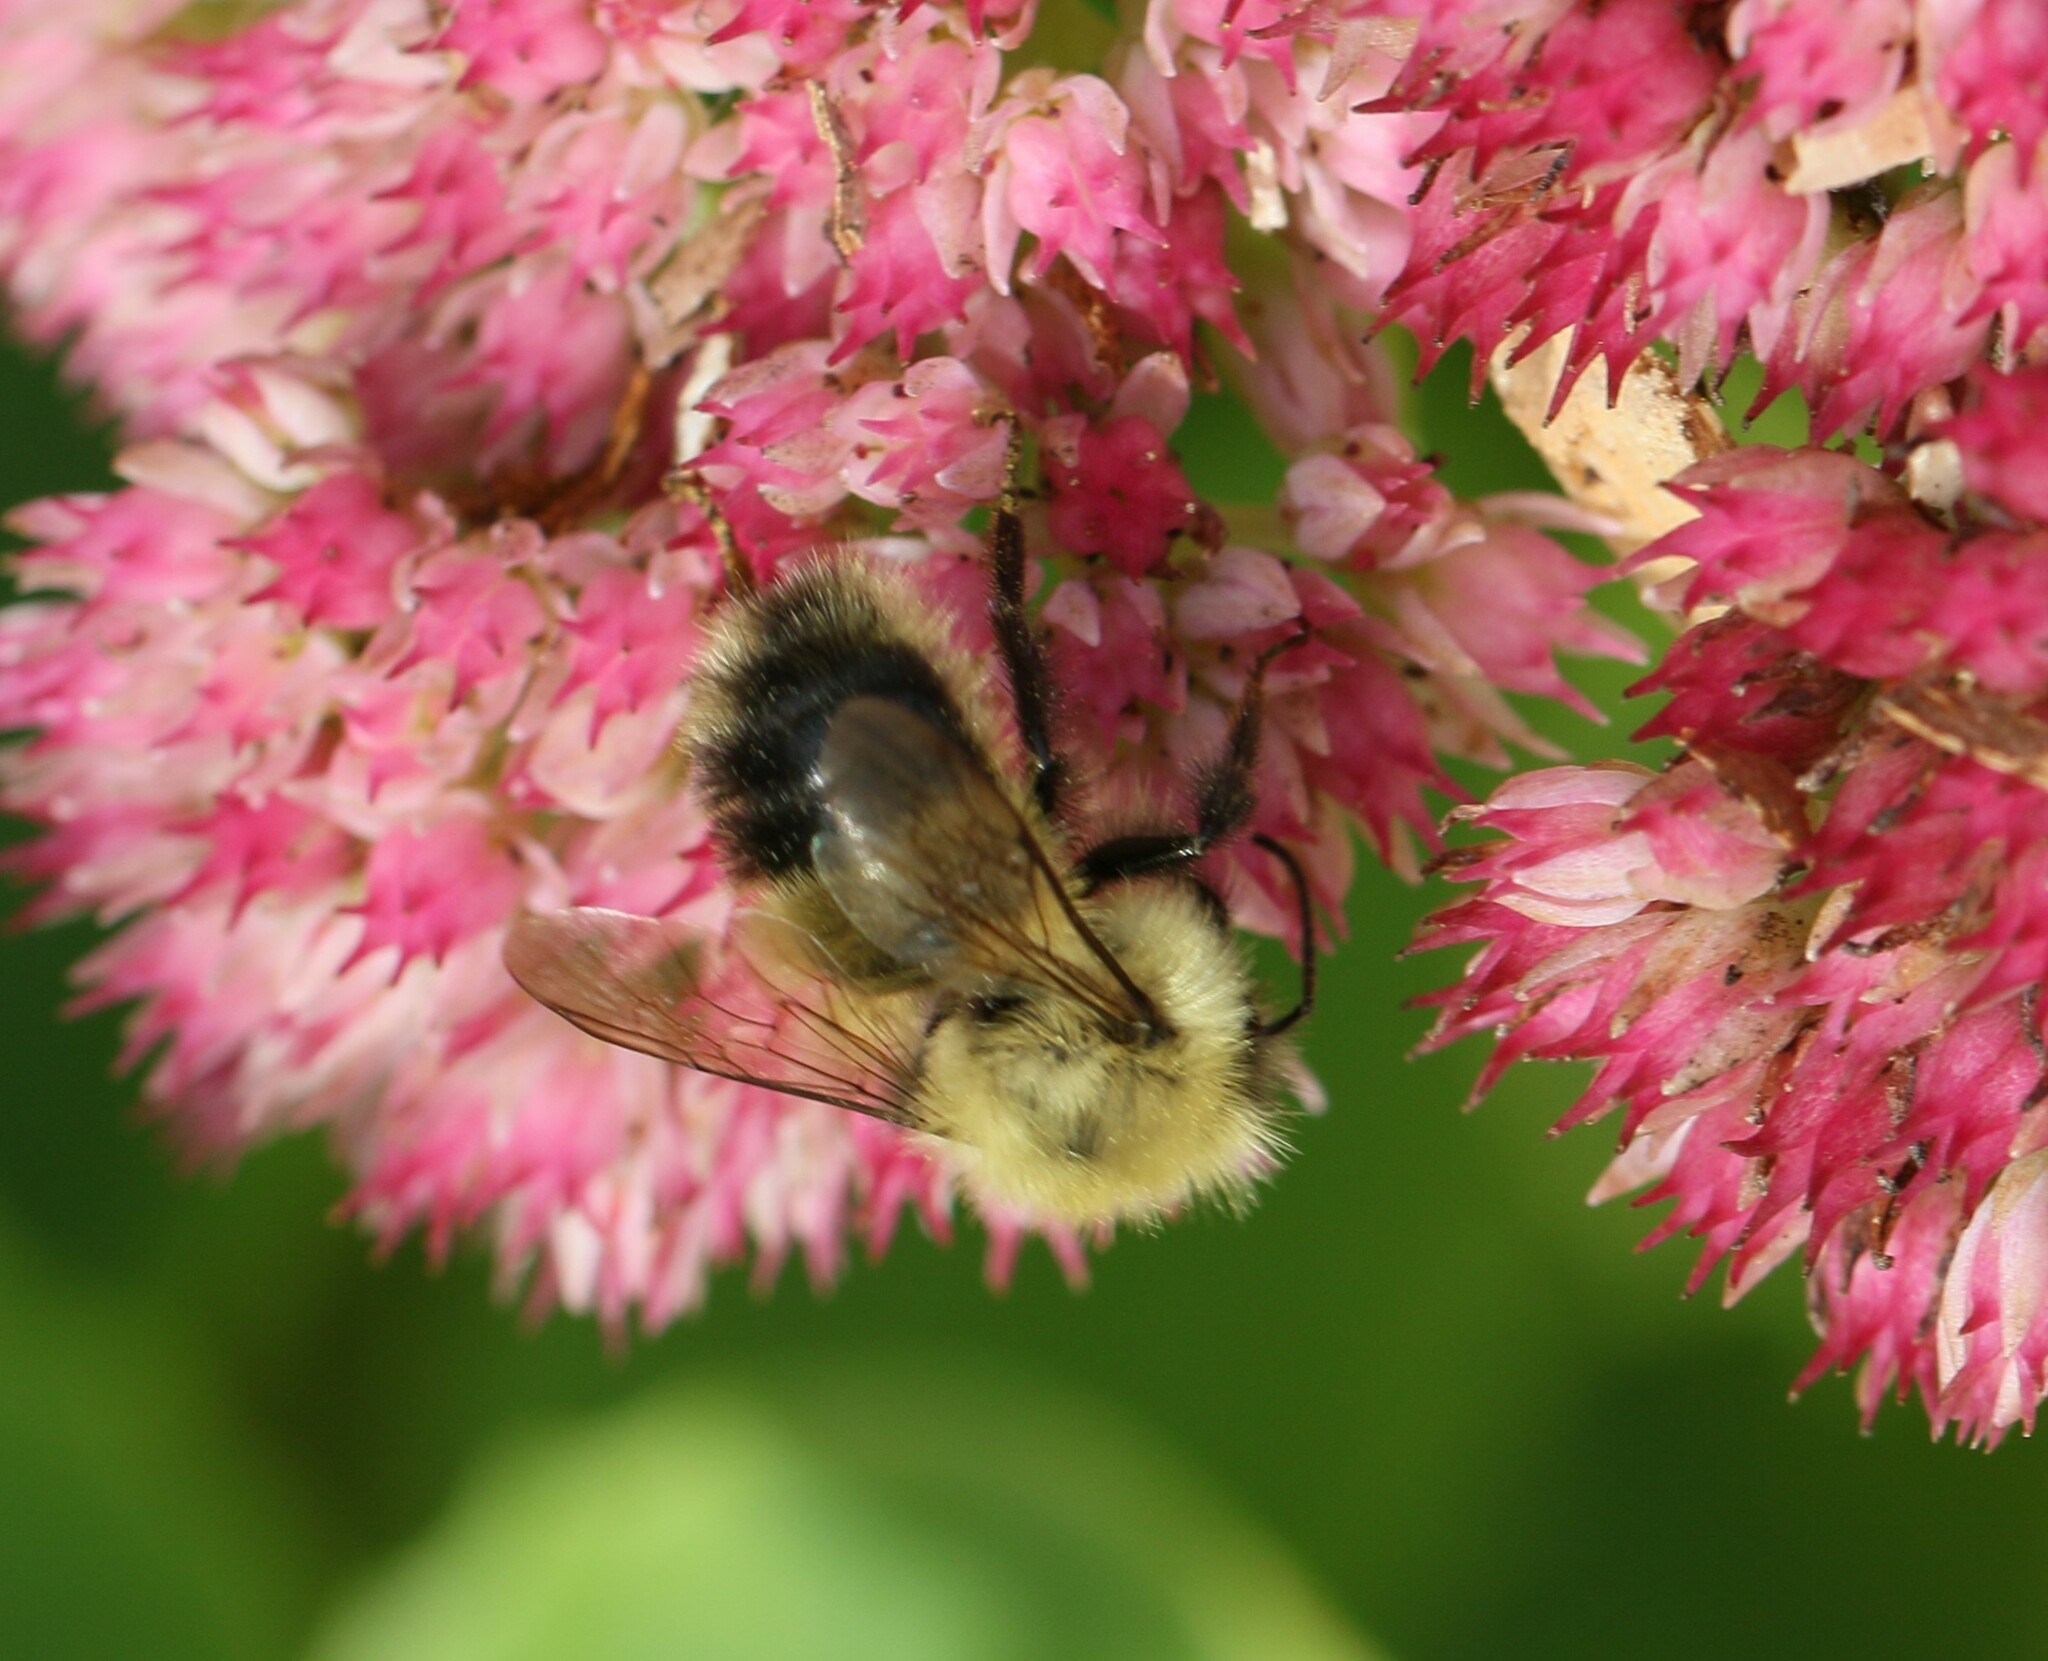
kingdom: Animalia
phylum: Arthropoda
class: Insecta
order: Hymenoptera
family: Apidae
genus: Pyrobombus
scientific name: Pyrobombus
